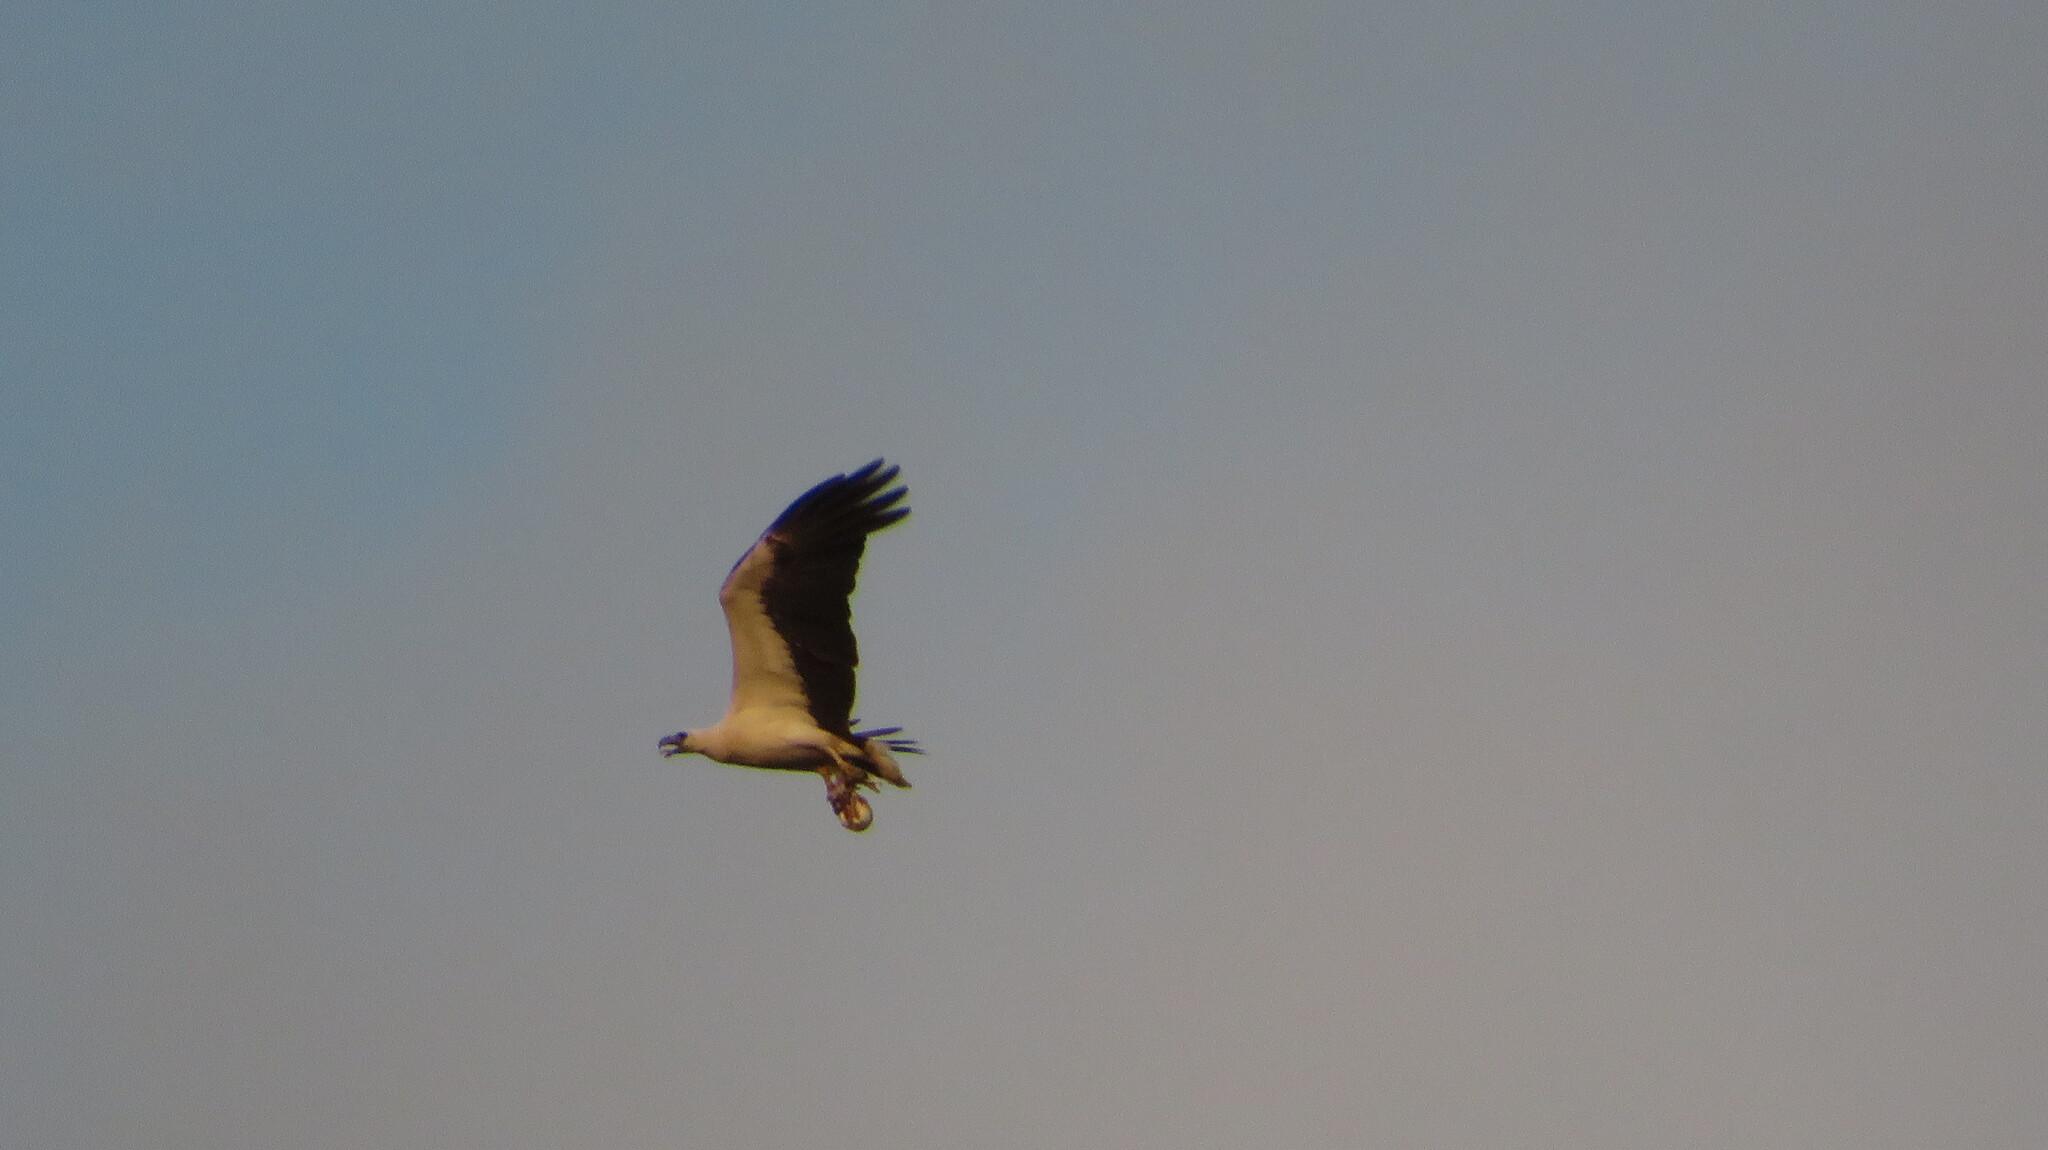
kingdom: Animalia
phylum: Chordata
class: Aves
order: Accipitriformes
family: Accipitridae
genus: Haliaeetus
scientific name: Haliaeetus leucogaster
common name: White-bellied sea eagle
